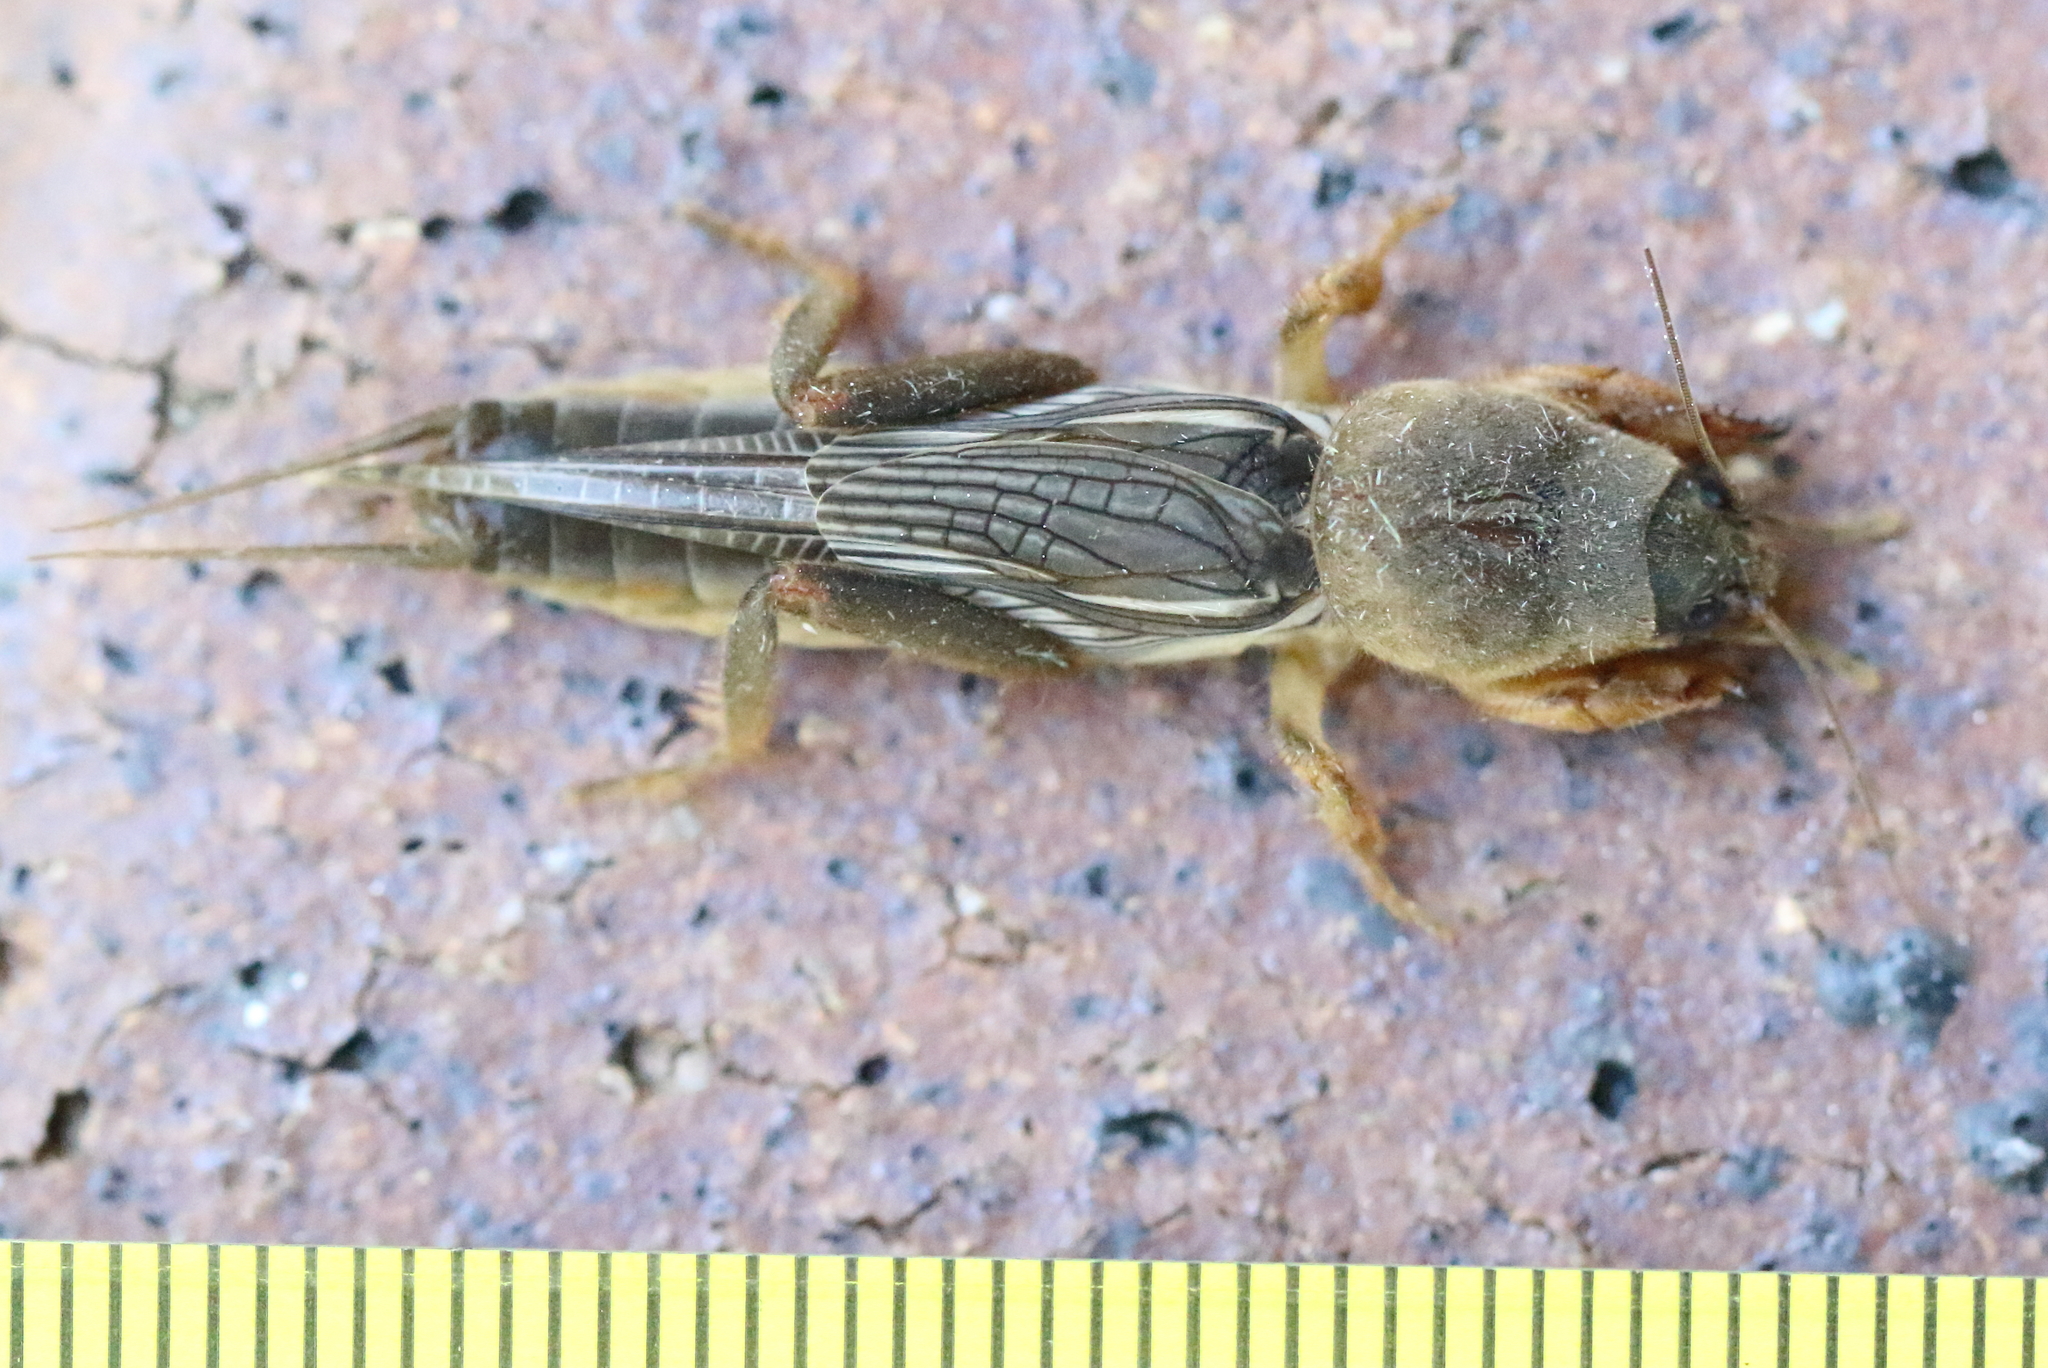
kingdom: Animalia
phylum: Arthropoda
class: Insecta
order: Orthoptera
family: Gryllotalpidae
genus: Gryllotalpa
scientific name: Gryllotalpa monanka
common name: Dark night mole cricket
